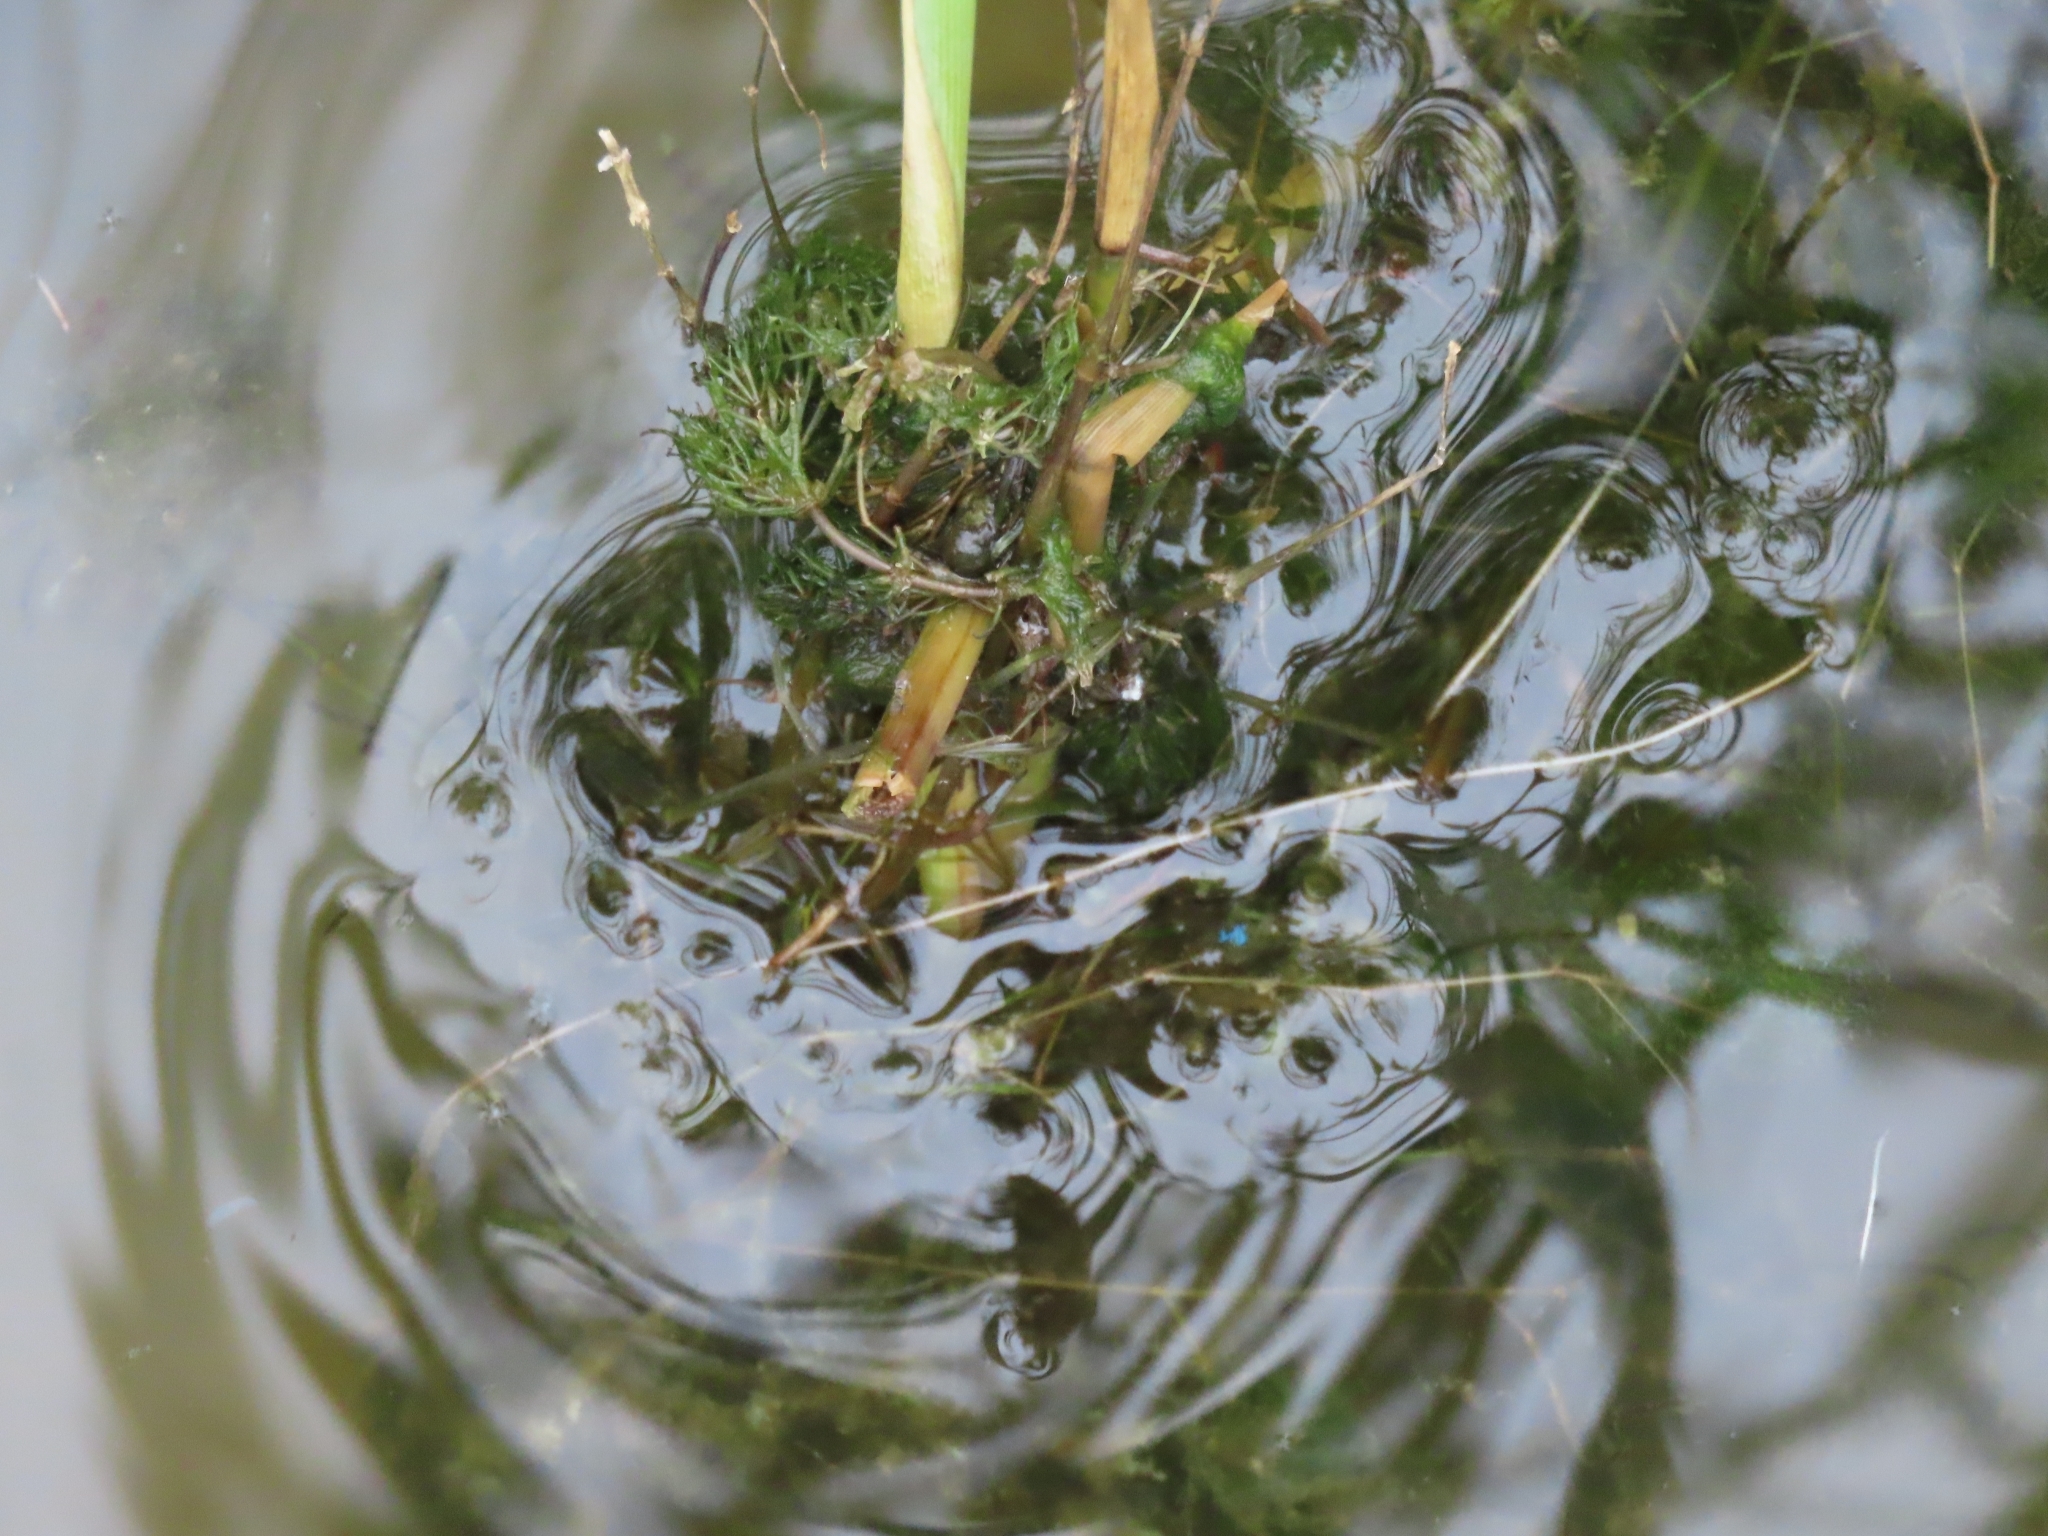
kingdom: Plantae
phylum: Tracheophyta
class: Liliopsida
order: Poales
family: Poaceae
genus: Phragmites
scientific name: Phragmites australis
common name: Common reed
